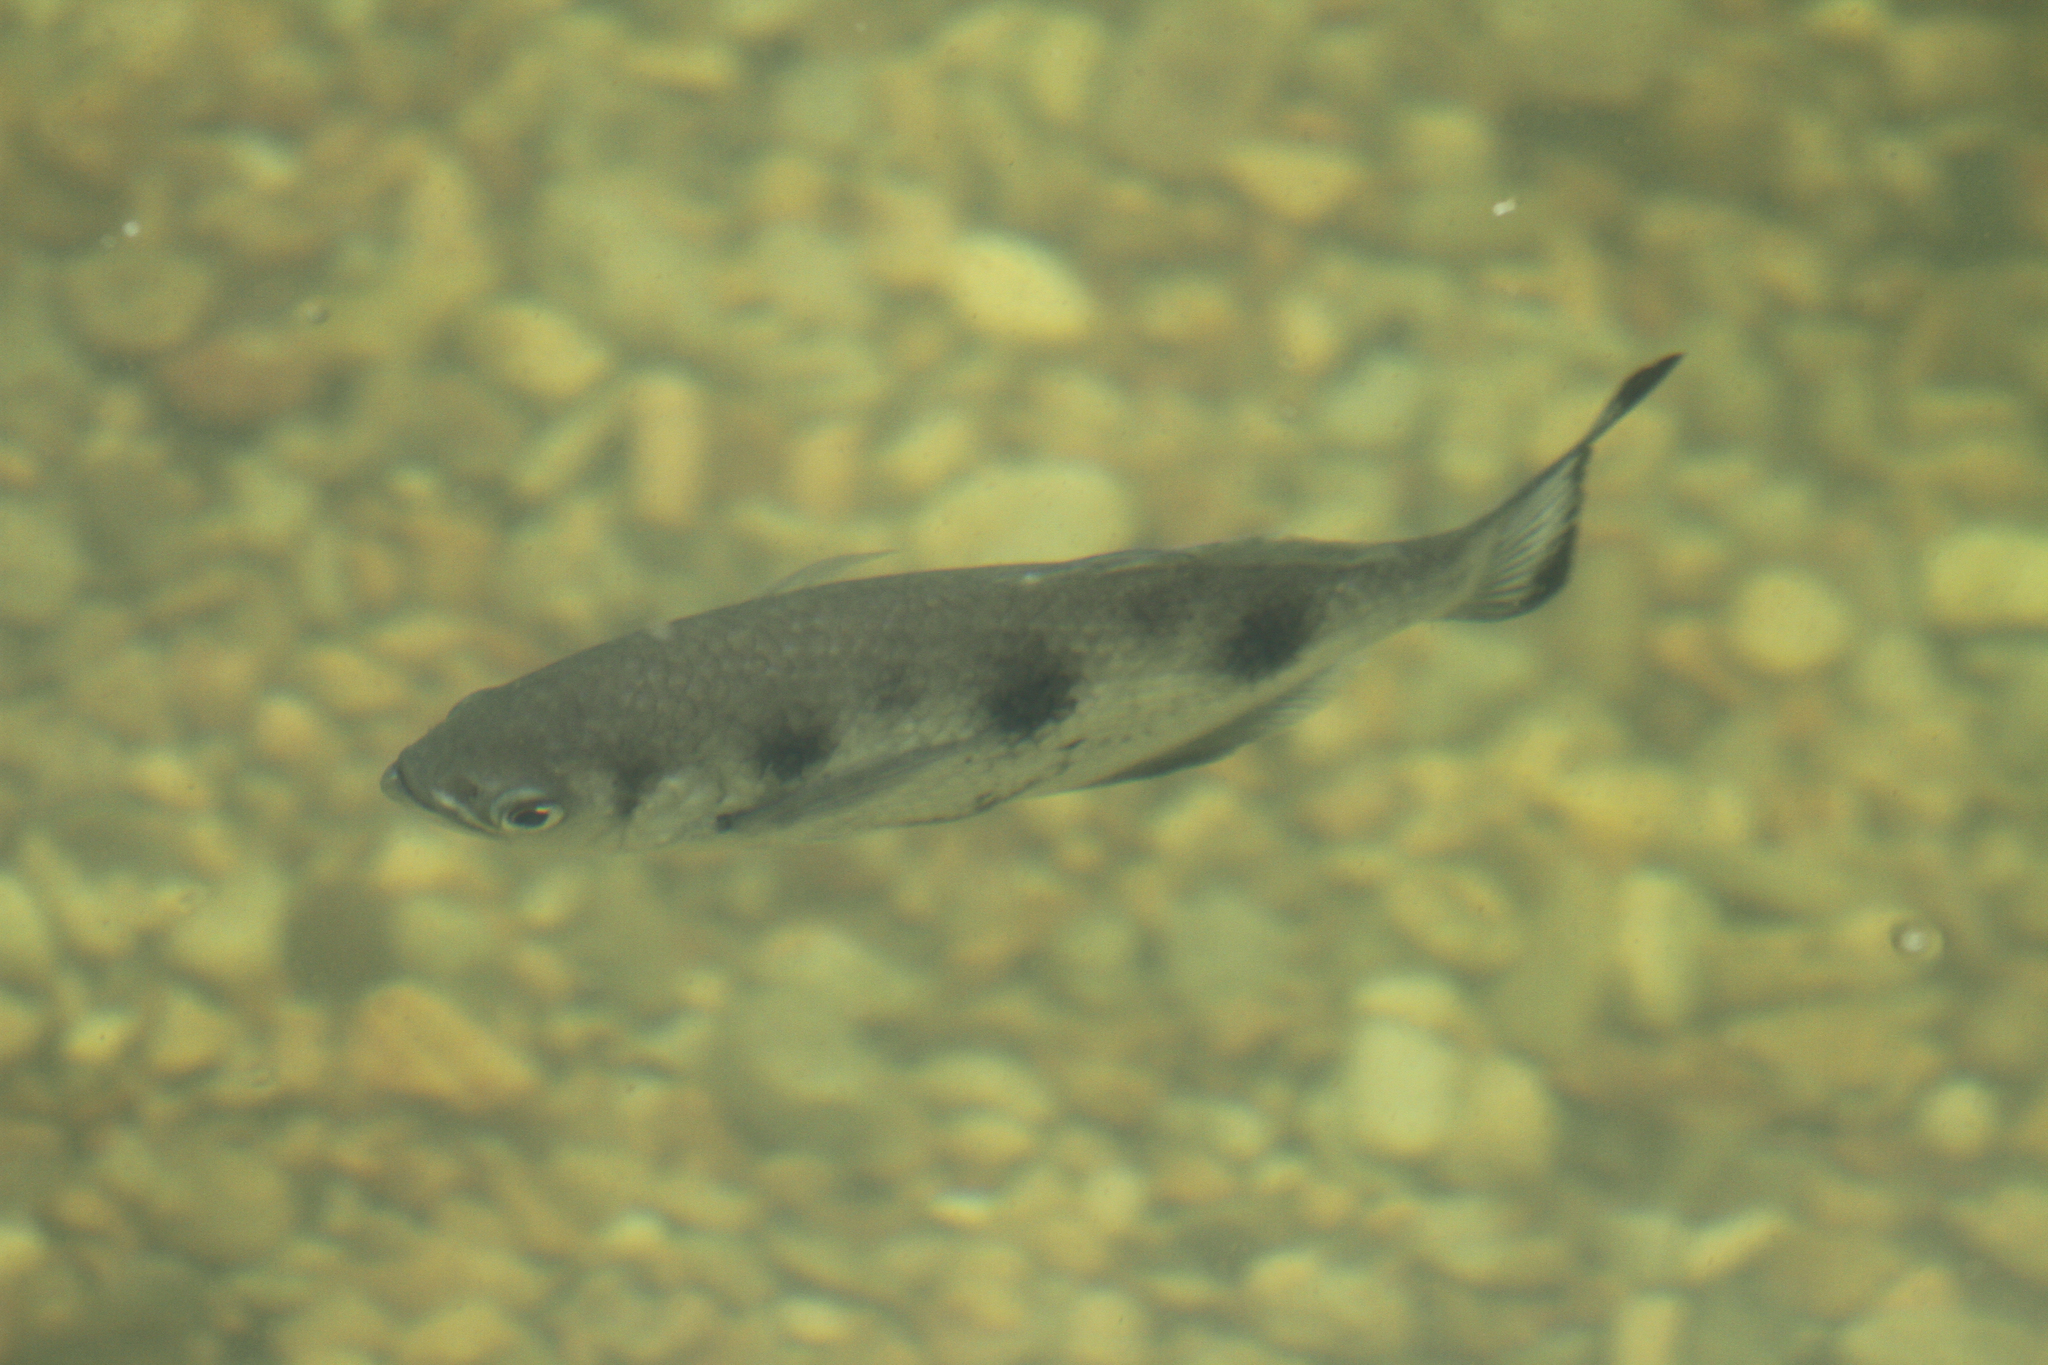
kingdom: Animalia
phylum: Chordata
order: Perciformes
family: Toxotidae
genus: Toxotes
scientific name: Toxotes chatareus
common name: Spotted archerfish
